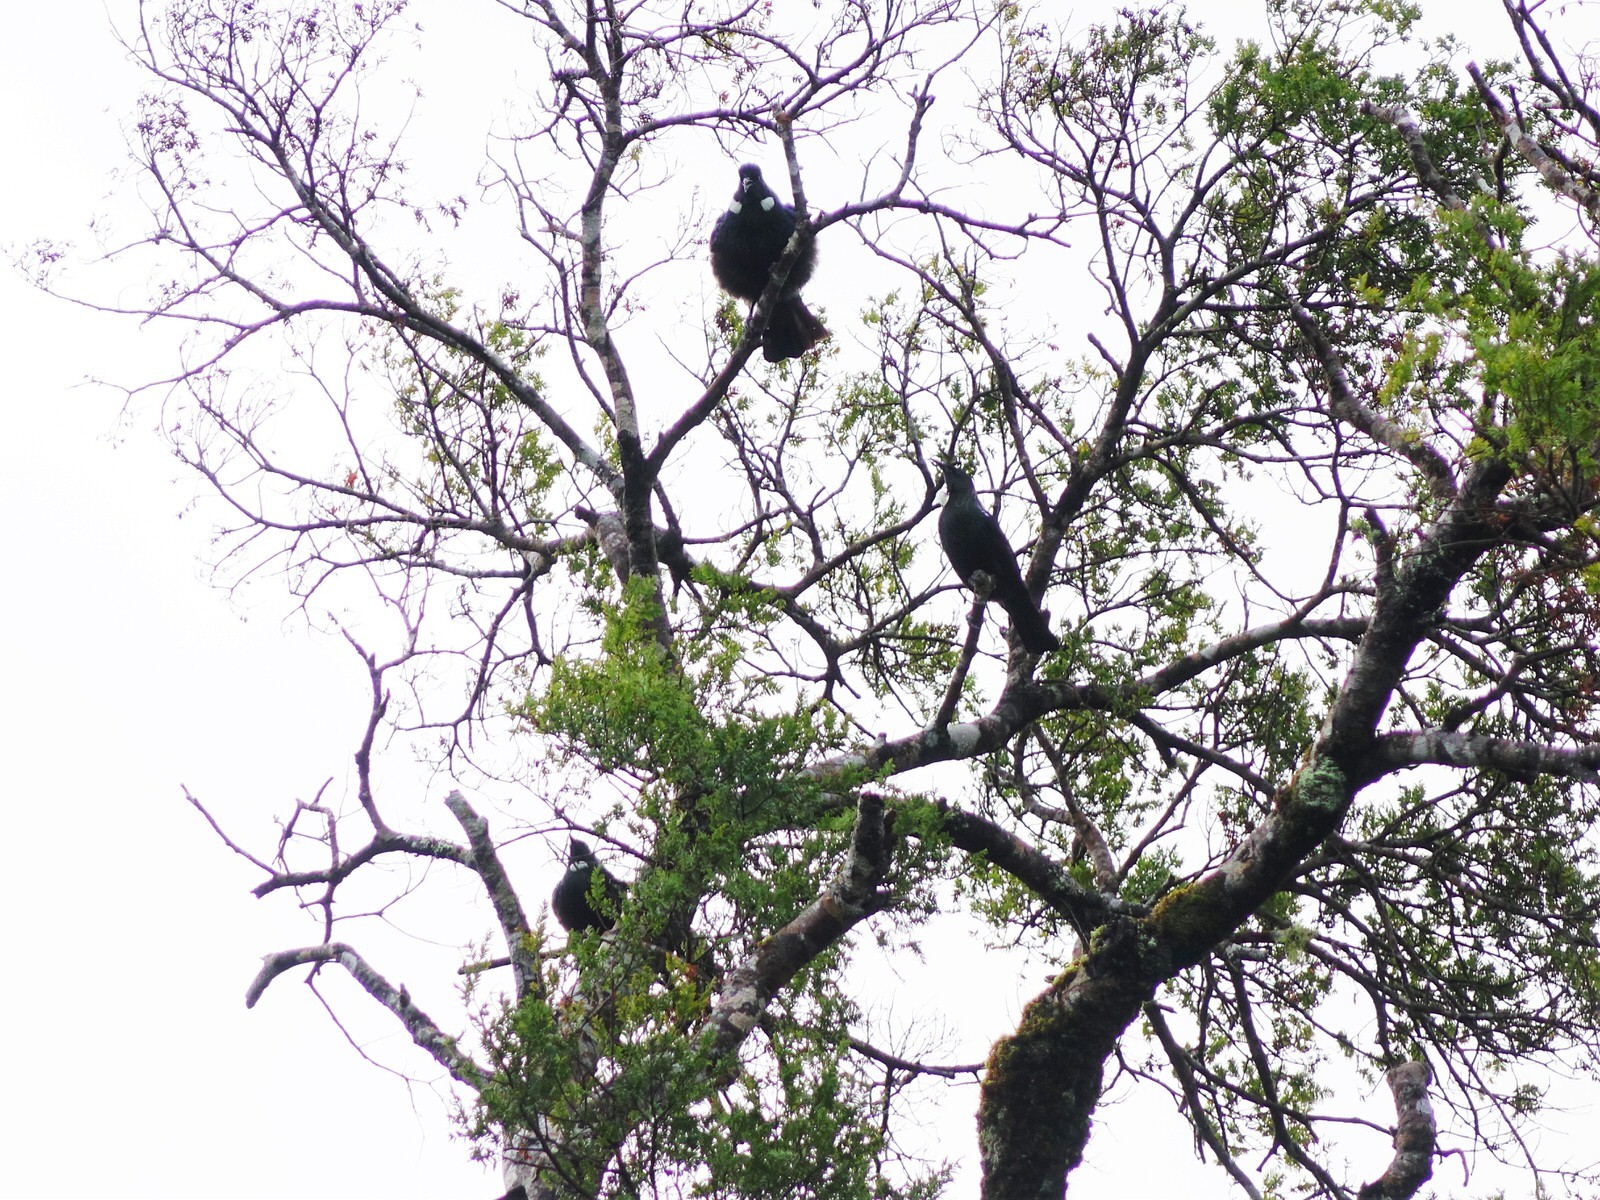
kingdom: Animalia
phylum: Chordata
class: Aves
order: Passeriformes
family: Meliphagidae
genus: Prosthemadera
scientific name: Prosthemadera novaeseelandiae
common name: Tui
